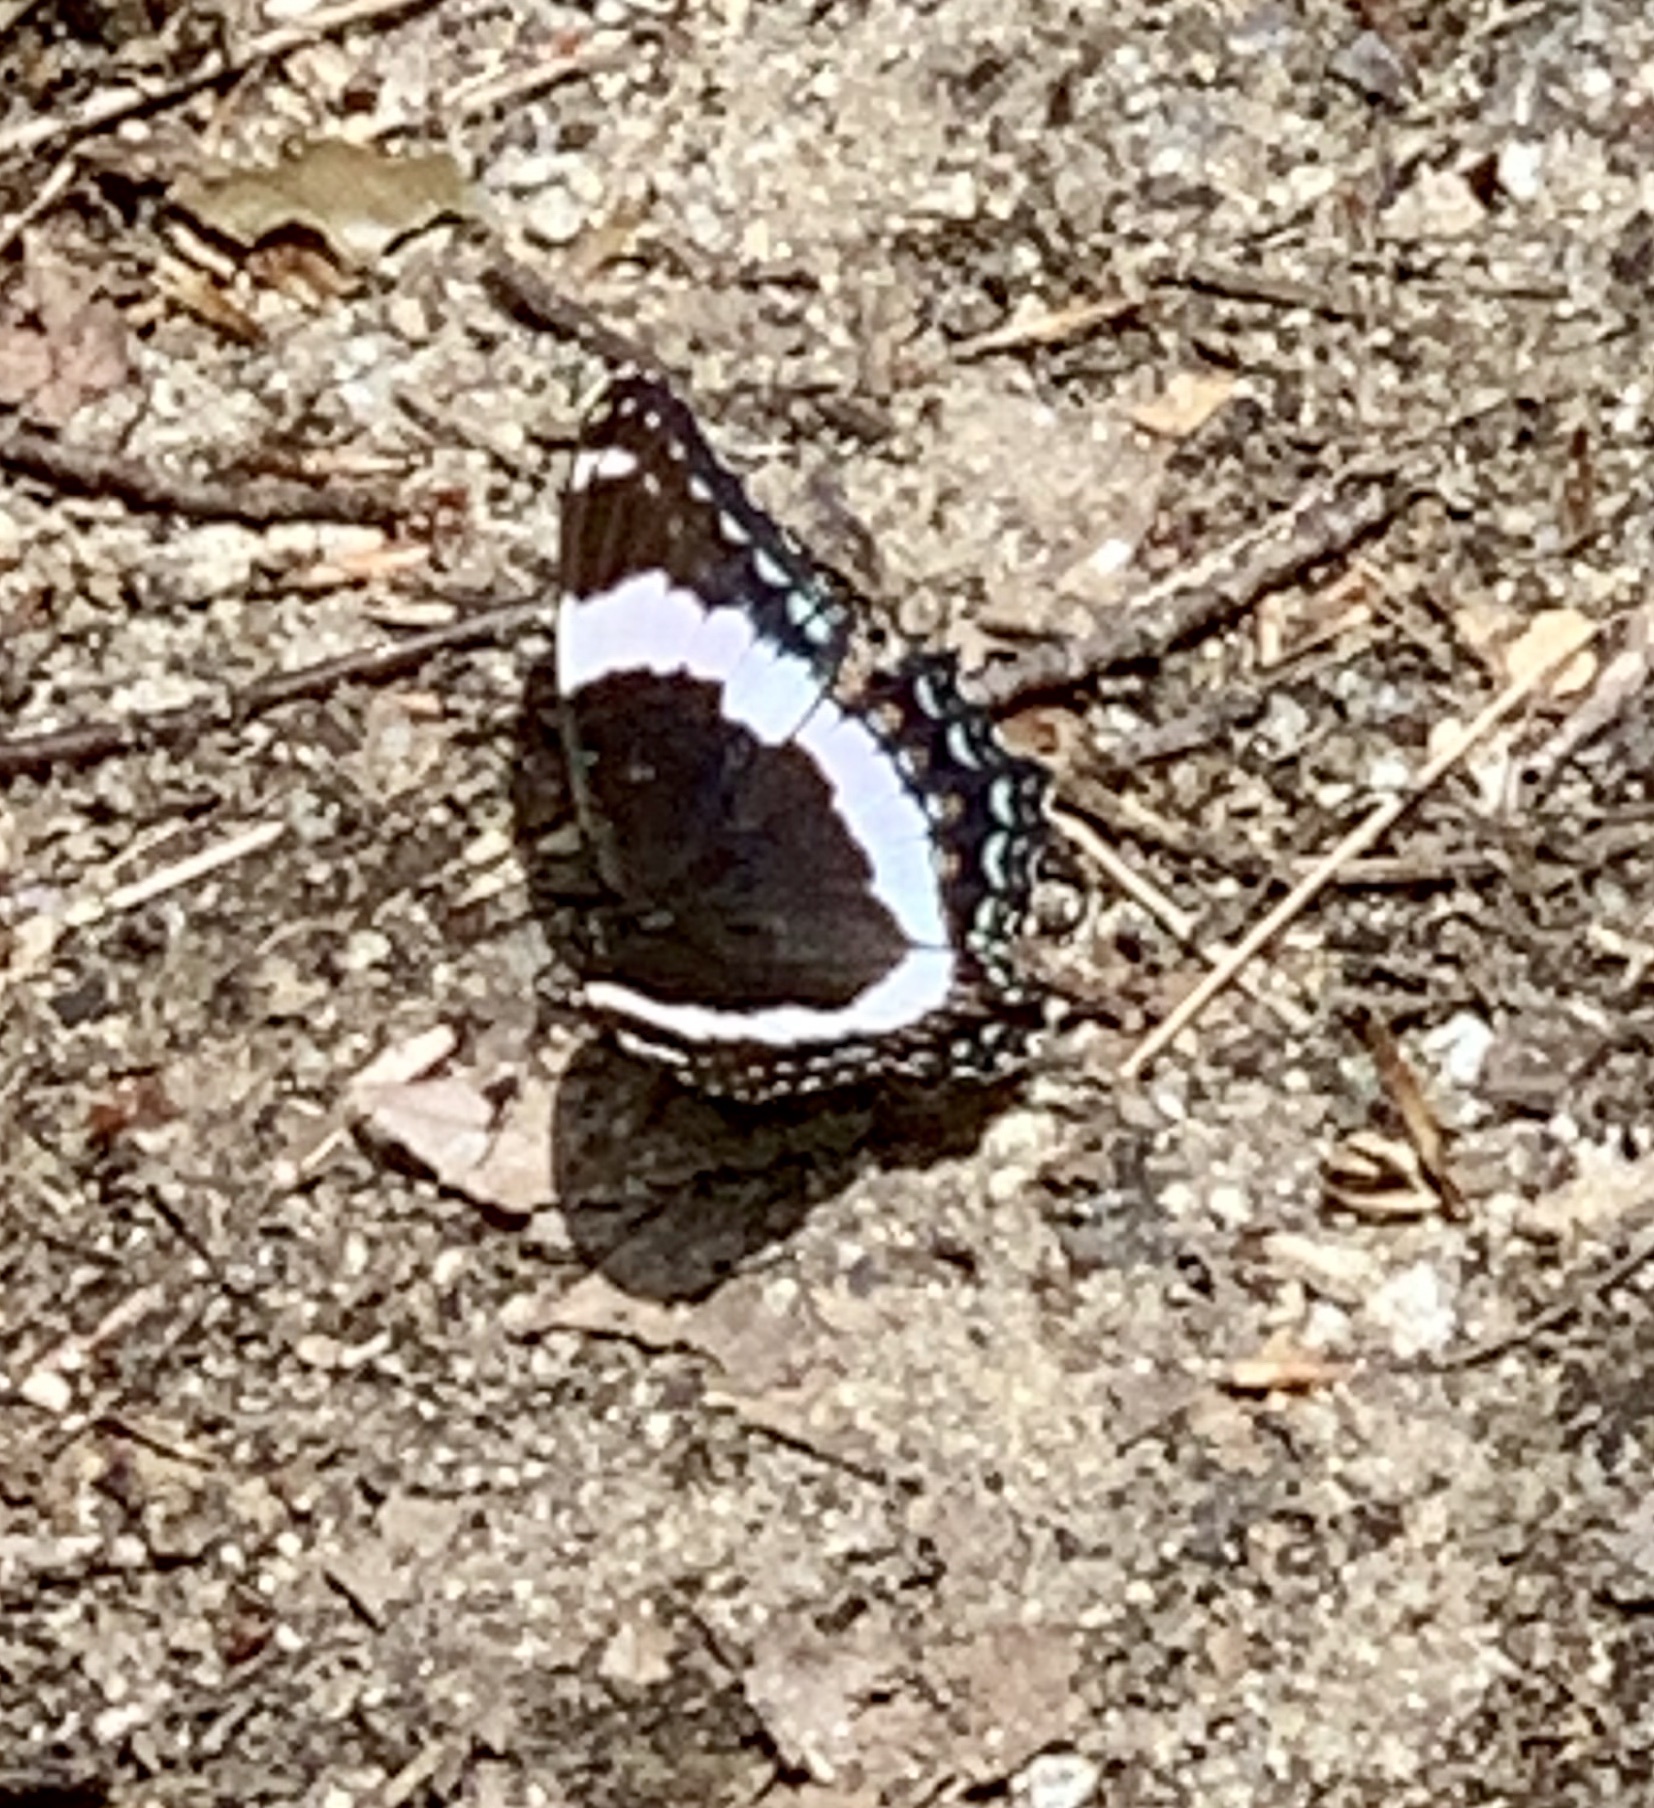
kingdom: Animalia
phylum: Arthropoda
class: Insecta
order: Lepidoptera
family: Nymphalidae
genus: Limenitis
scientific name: Limenitis arthemis
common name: Red-spotted admiral
